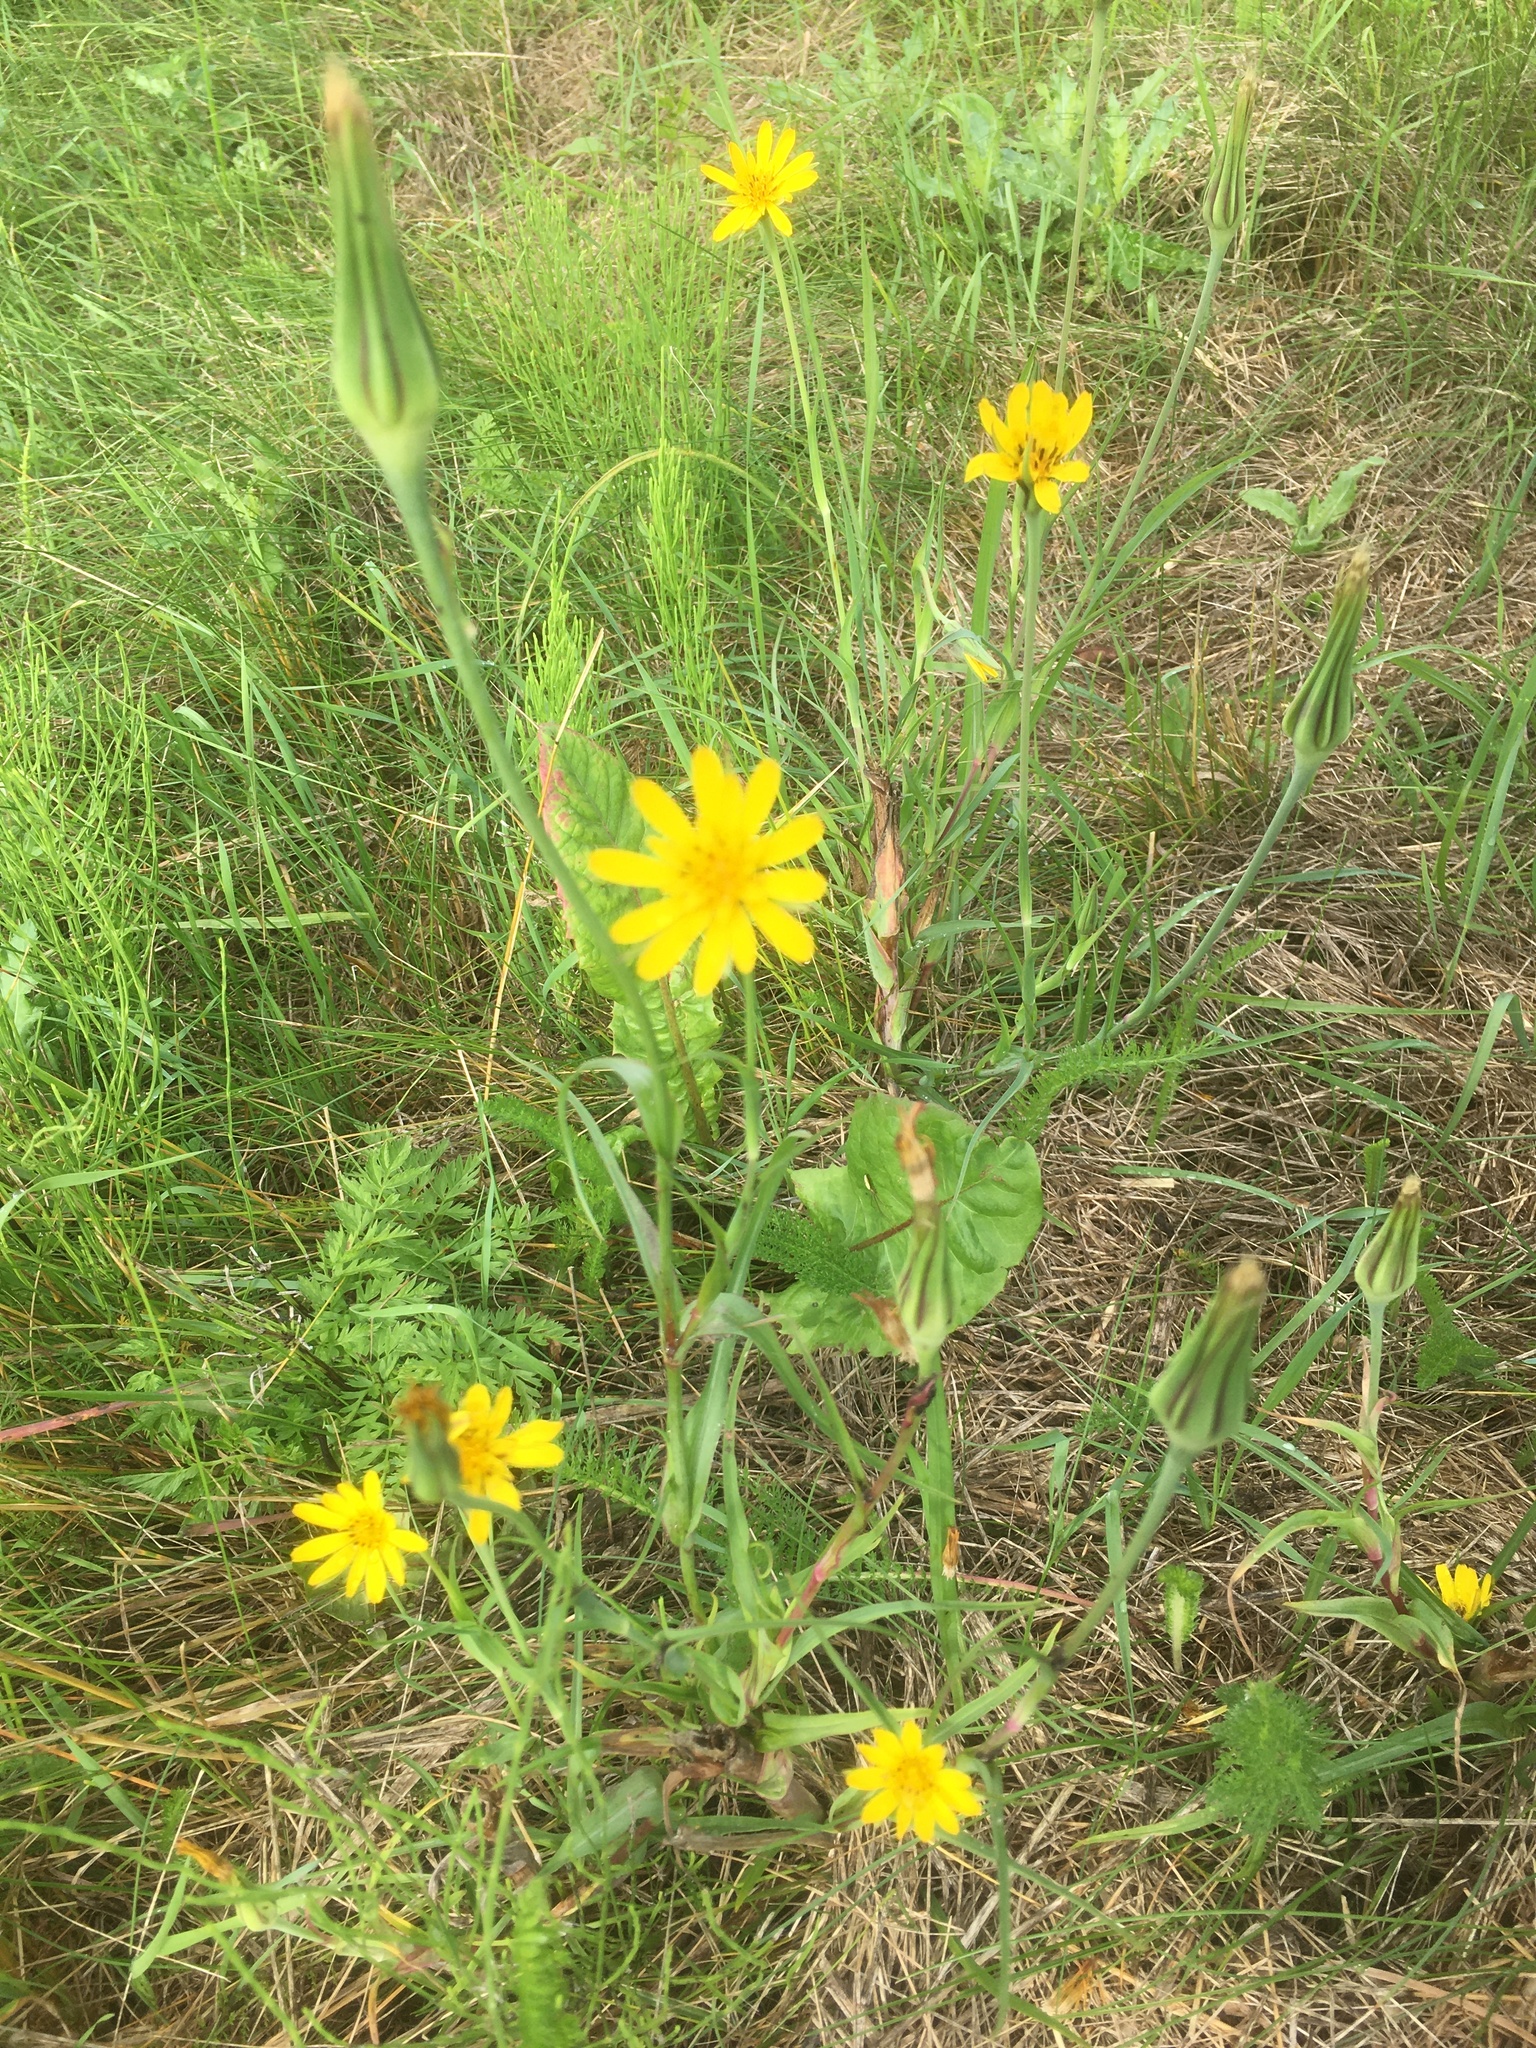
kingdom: Plantae
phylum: Tracheophyta
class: Magnoliopsida
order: Asterales
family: Asteraceae
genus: Tragopogon
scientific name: Tragopogon pratensis
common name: Goat's-beard
